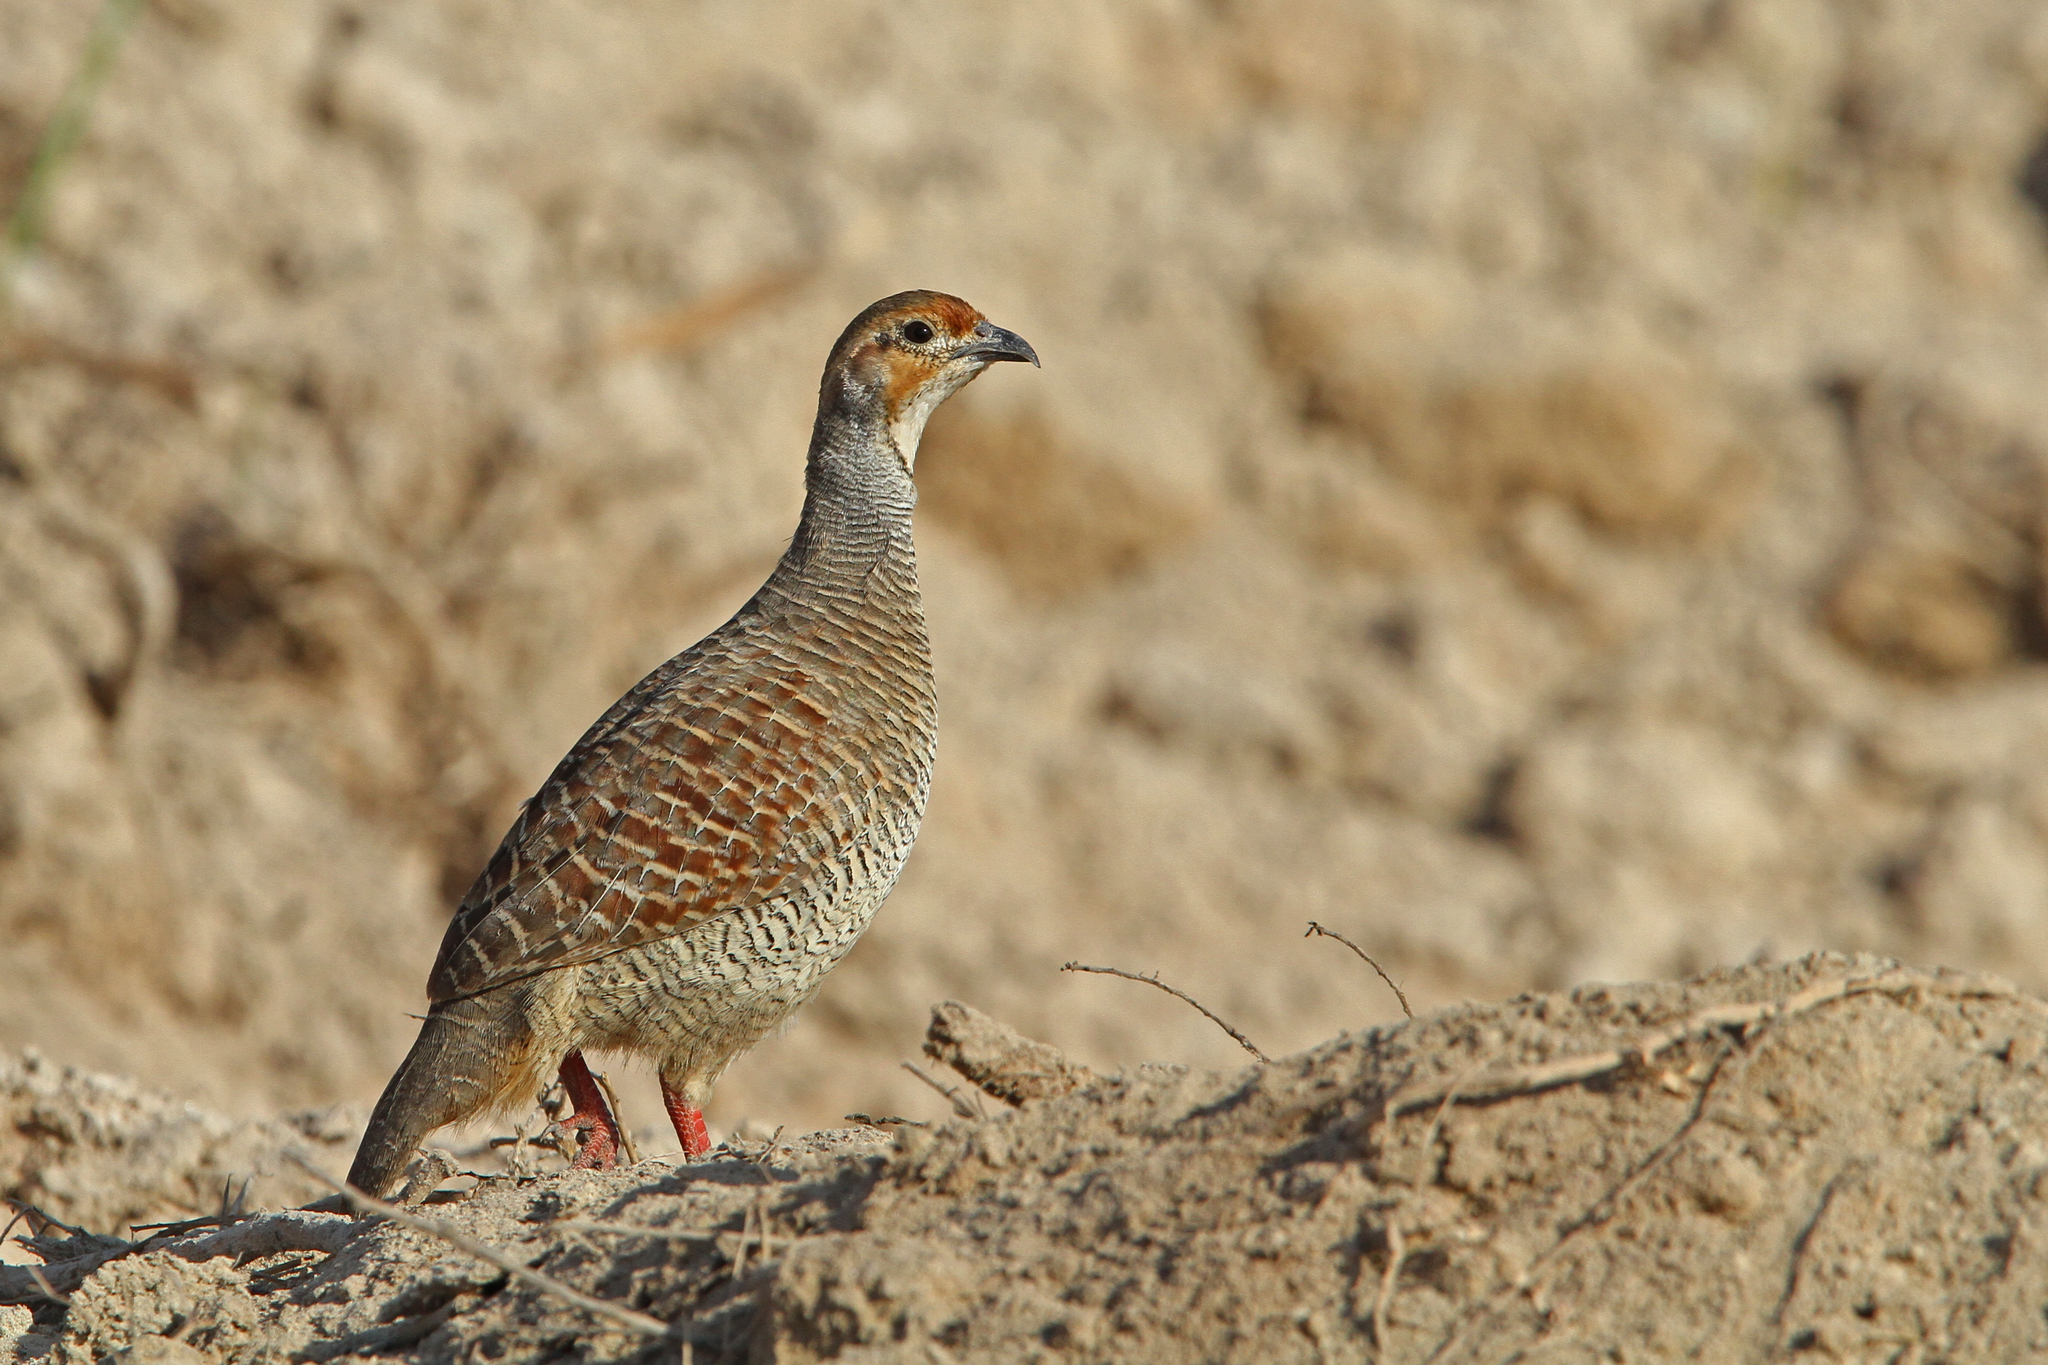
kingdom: Animalia
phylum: Chordata
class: Aves
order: Galliformes
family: Phasianidae
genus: Ortygornis
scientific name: Ortygornis pondicerianus
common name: Grey francolin
